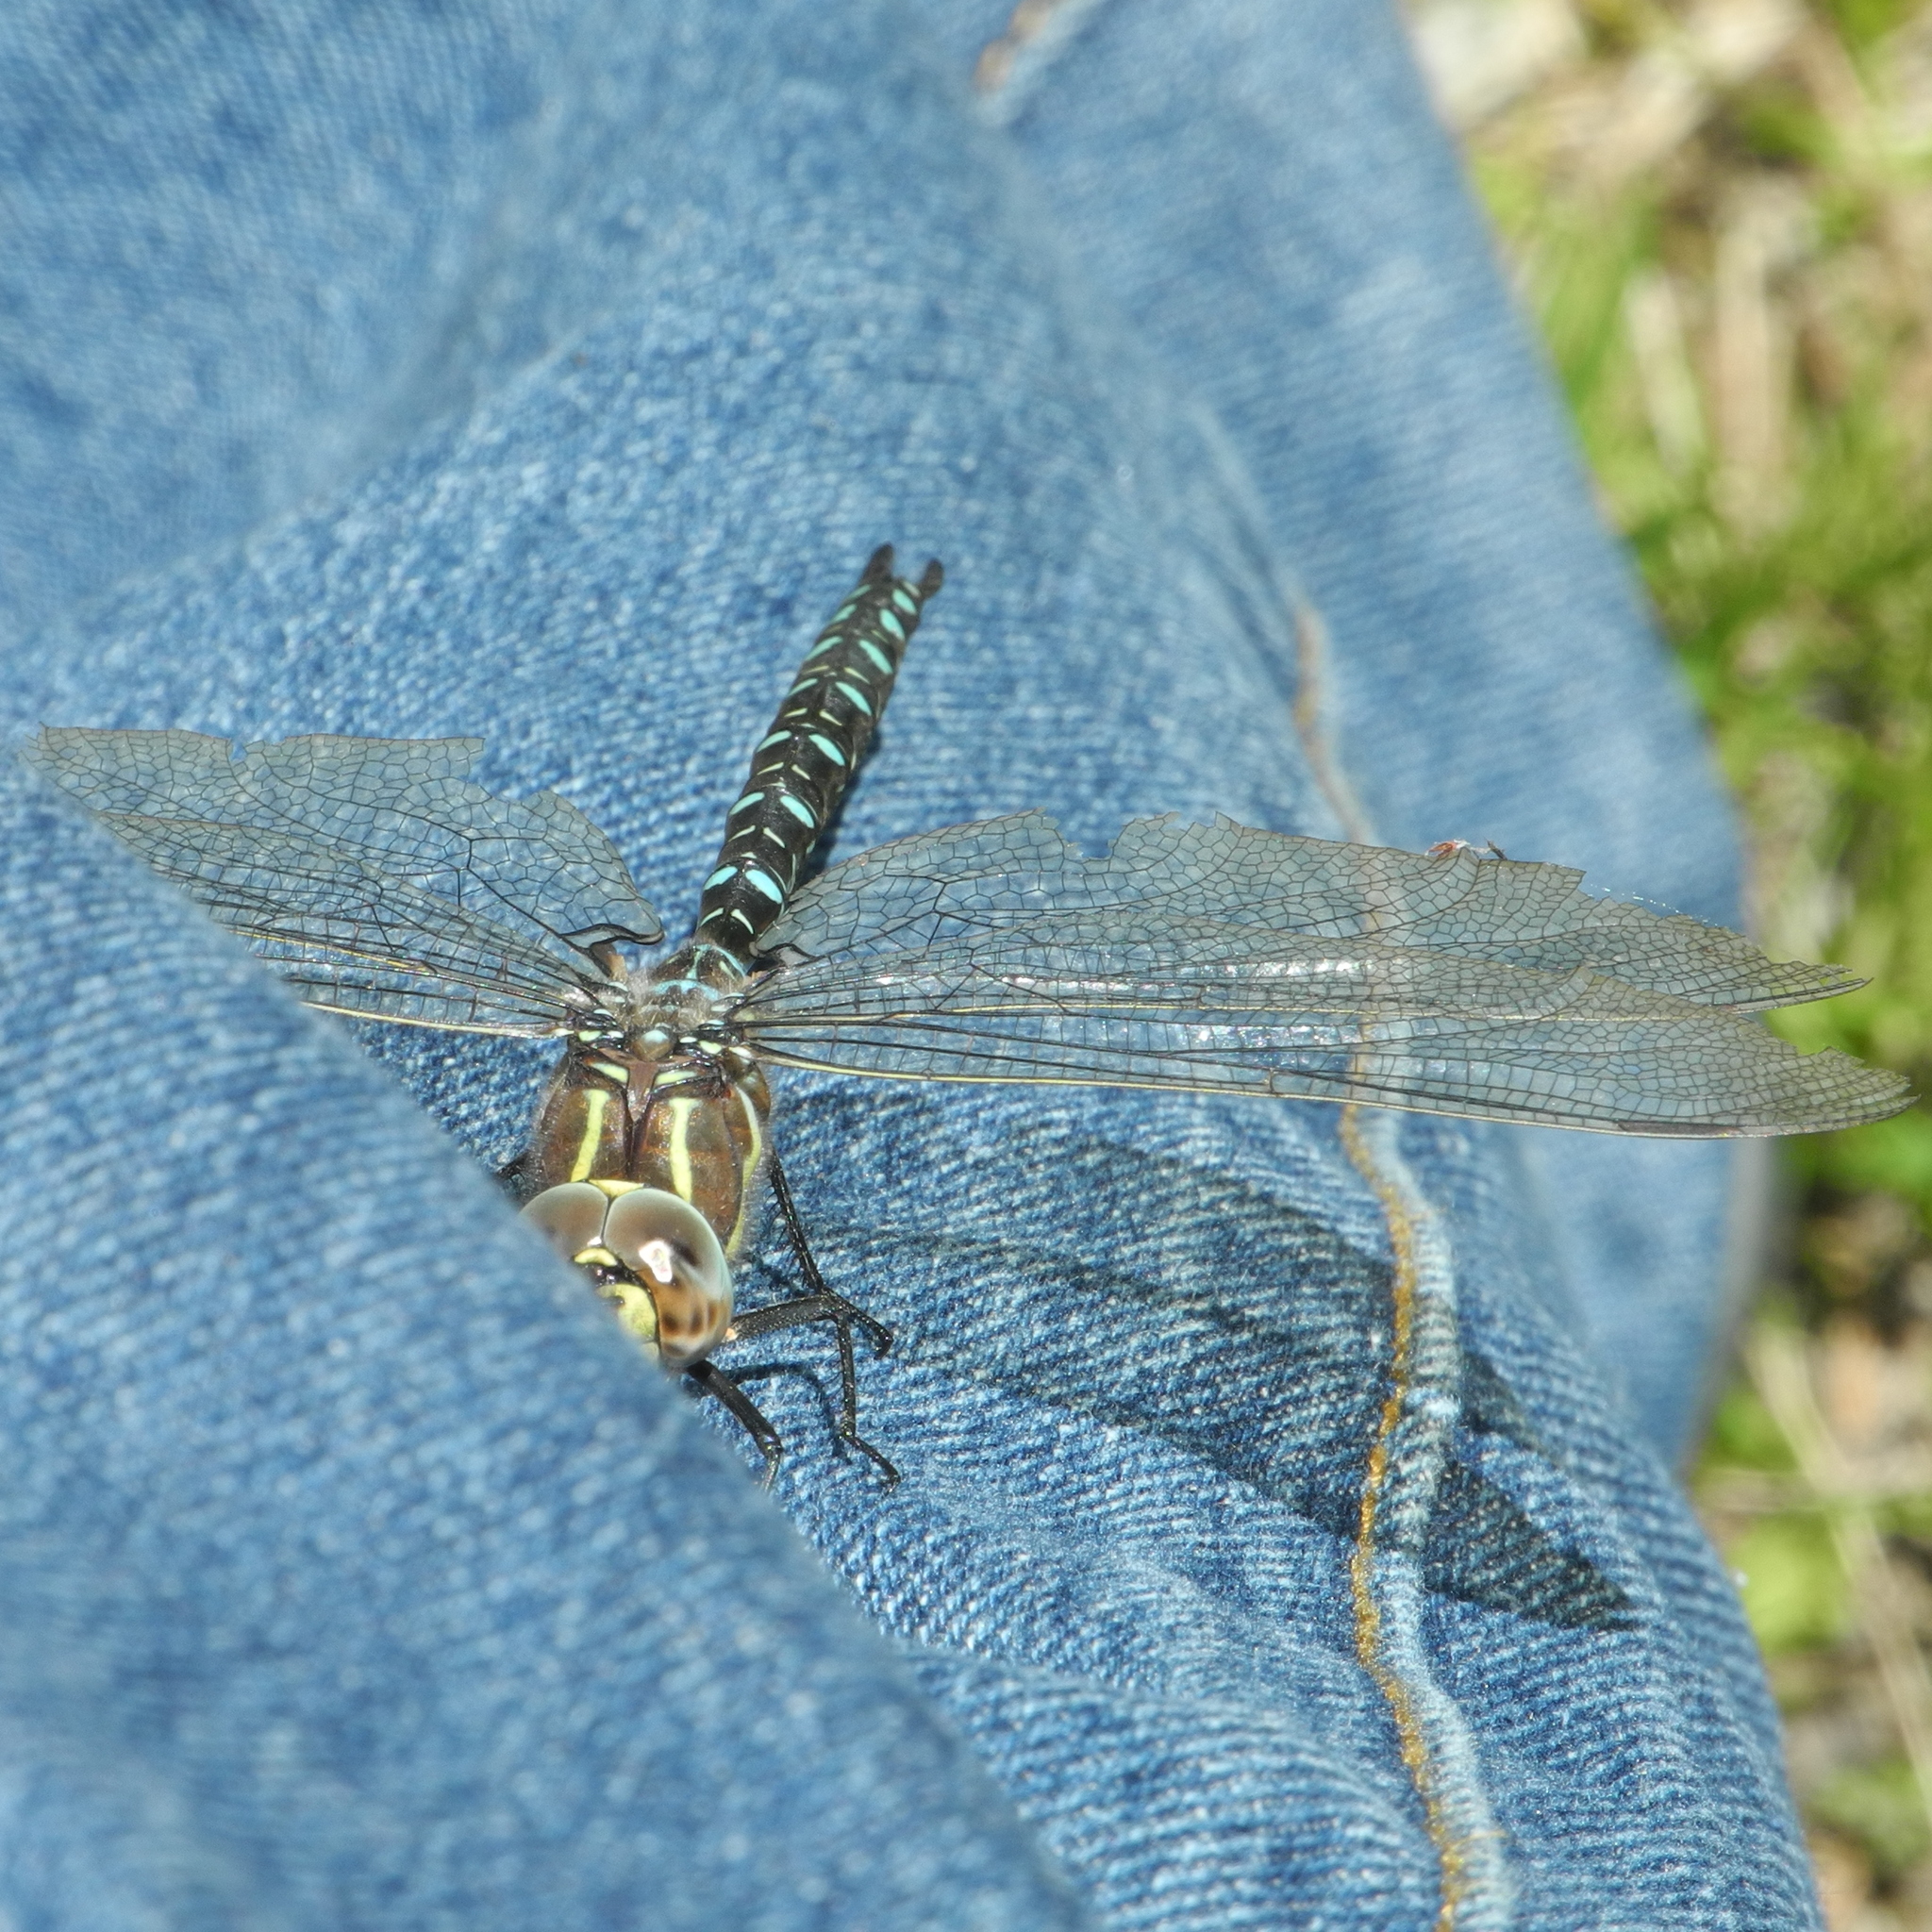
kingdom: Animalia
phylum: Arthropoda
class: Insecta
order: Odonata
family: Aeshnidae
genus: Aeshna
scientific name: Aeshna juncea
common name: Moorland hawker
